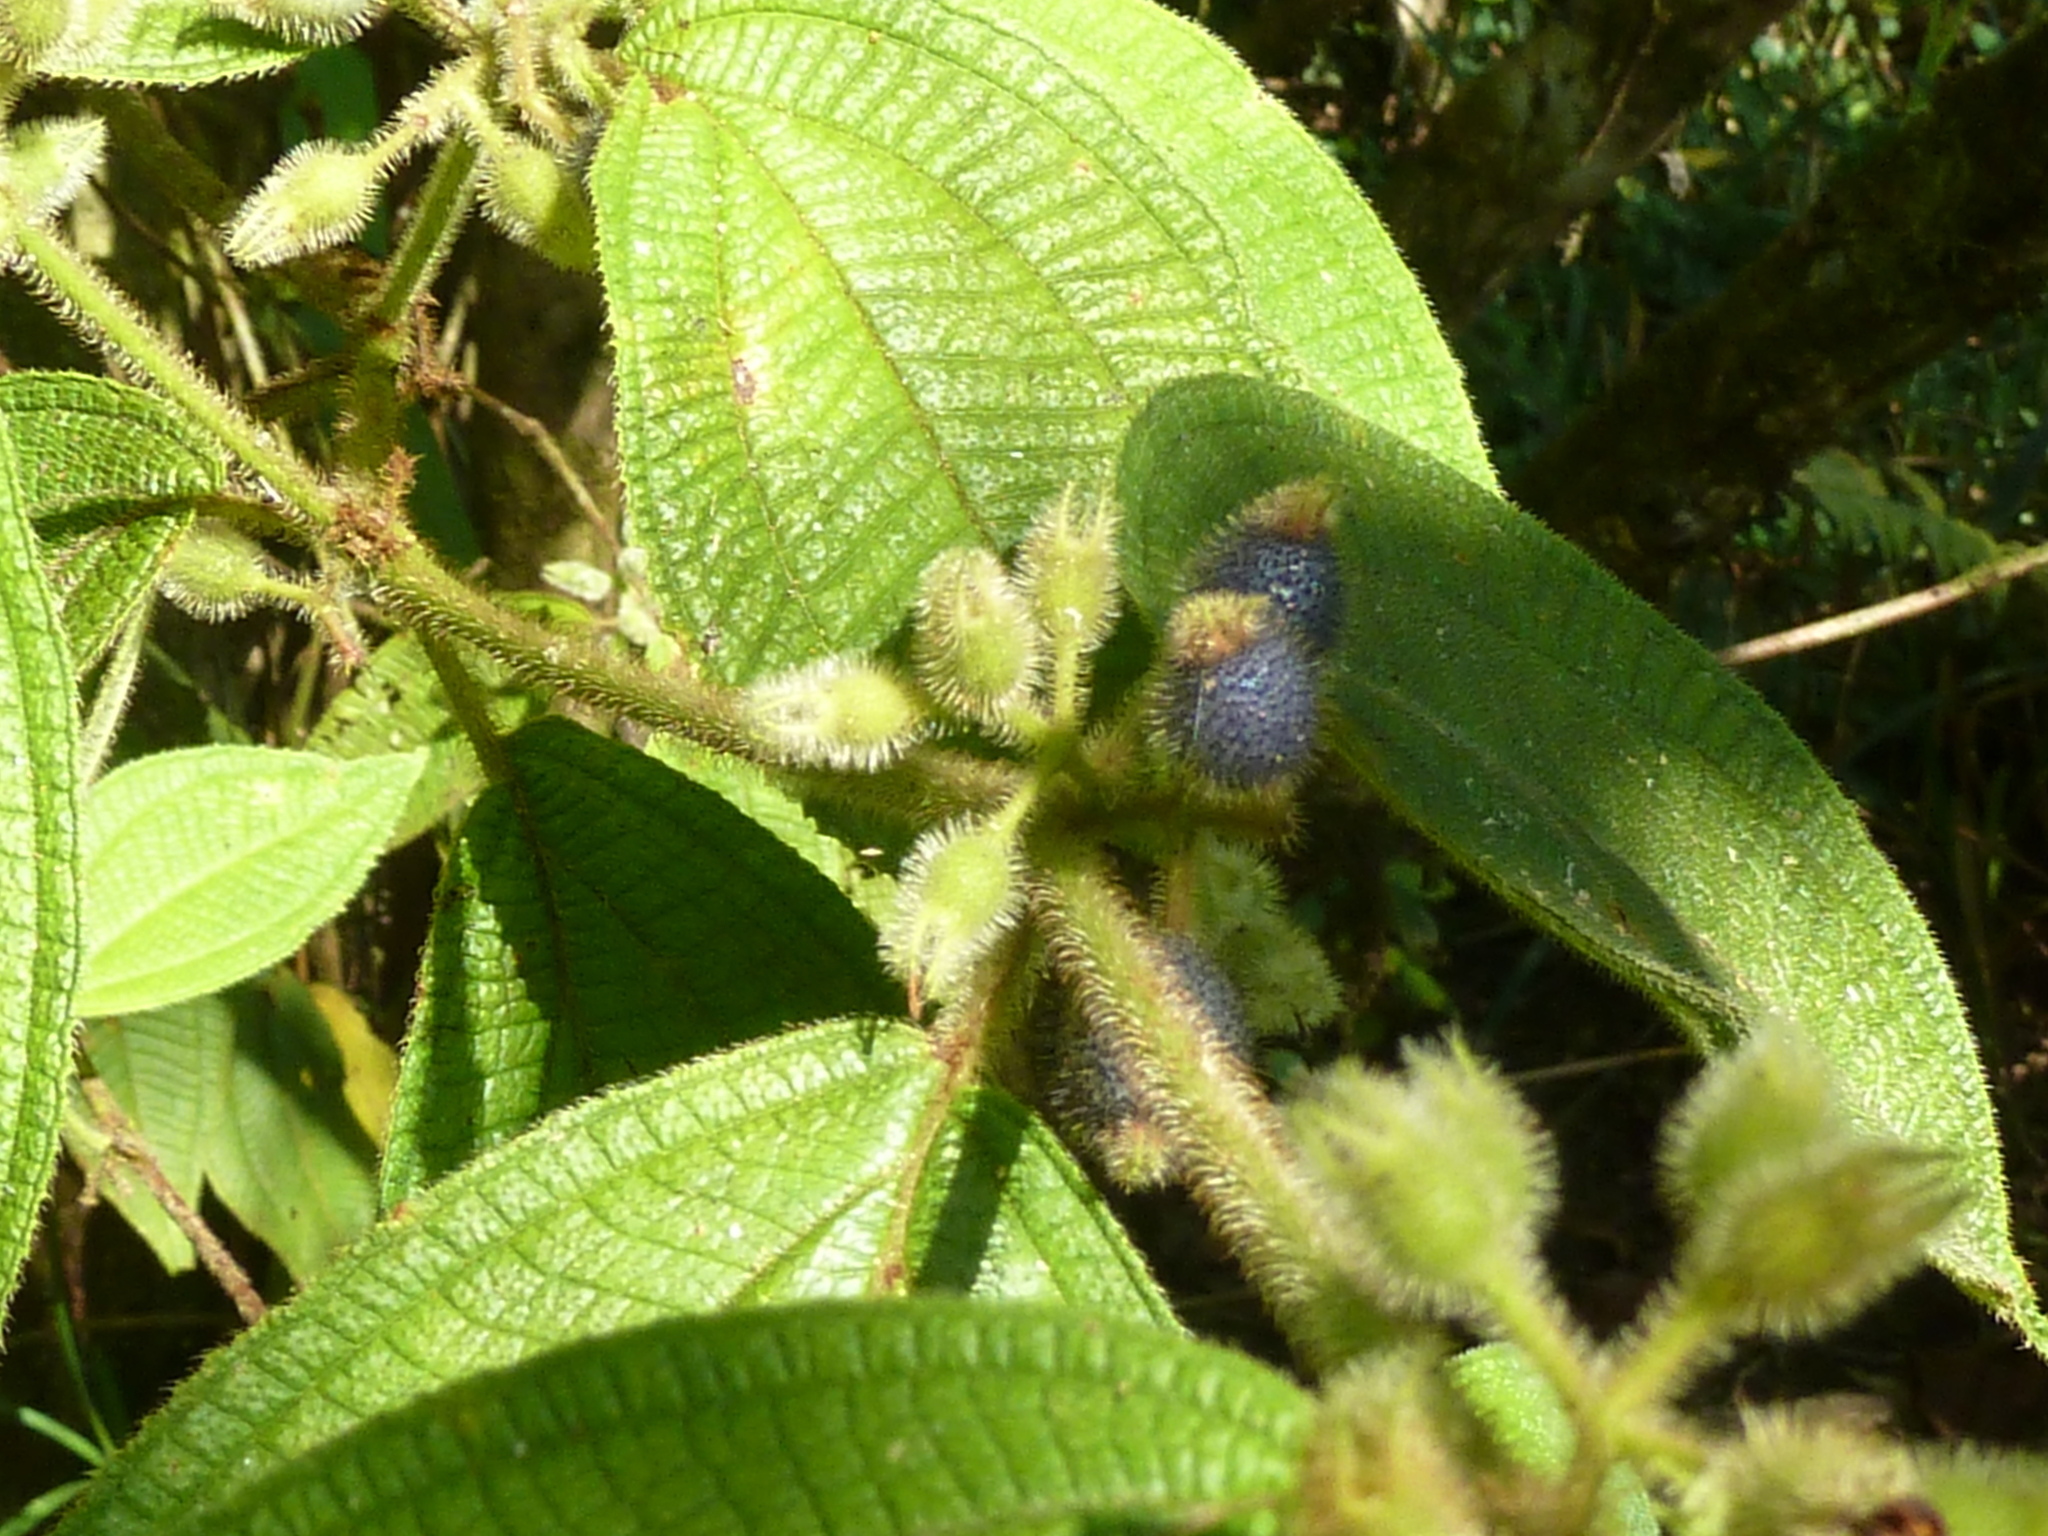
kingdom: Plantae
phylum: Tracheophyta
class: Magnoliopsida
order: Myrtales
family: Melastomataceae
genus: Miconia
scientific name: Miconia dentata
